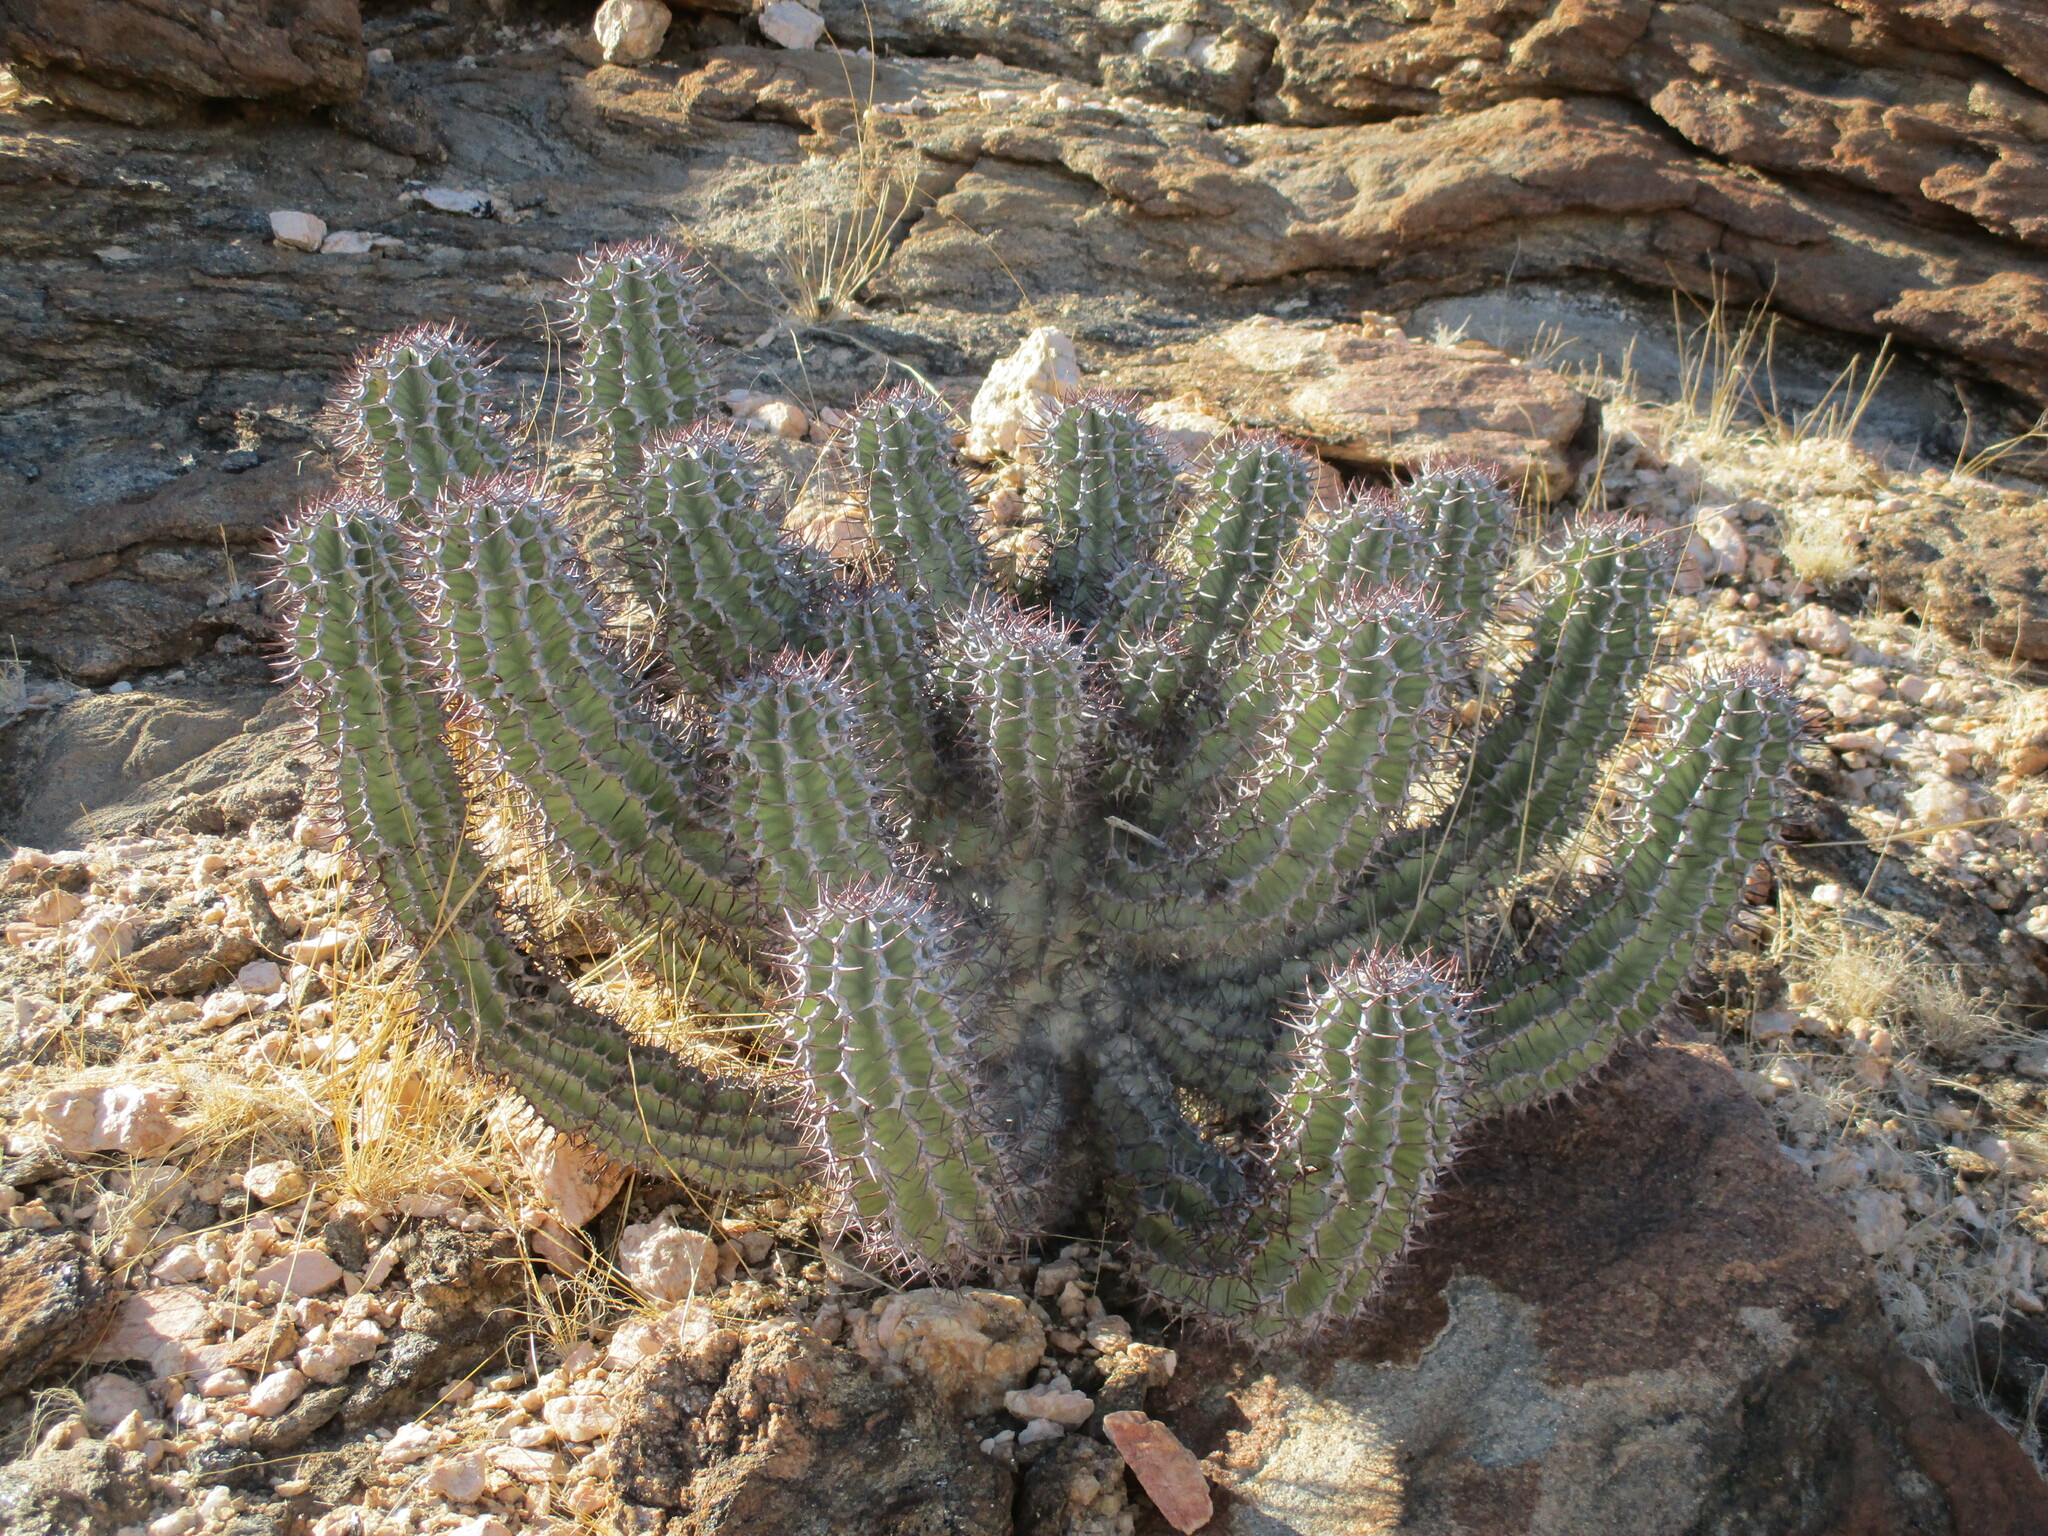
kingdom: Plantae
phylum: Tracheophyta
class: Magnoliopsida
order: Malpighiales
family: Euphorbiaceae
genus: Euphorbia
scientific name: Euphorbia virosa
